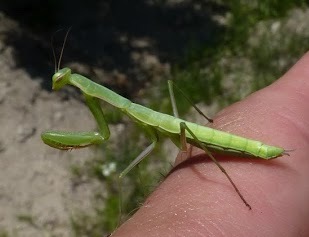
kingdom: Animalia
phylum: Arthropoda
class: Insecta
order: Mantodea
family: Mantidae
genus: Mantis
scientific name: Mantis religiosa
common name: Praying mantis
